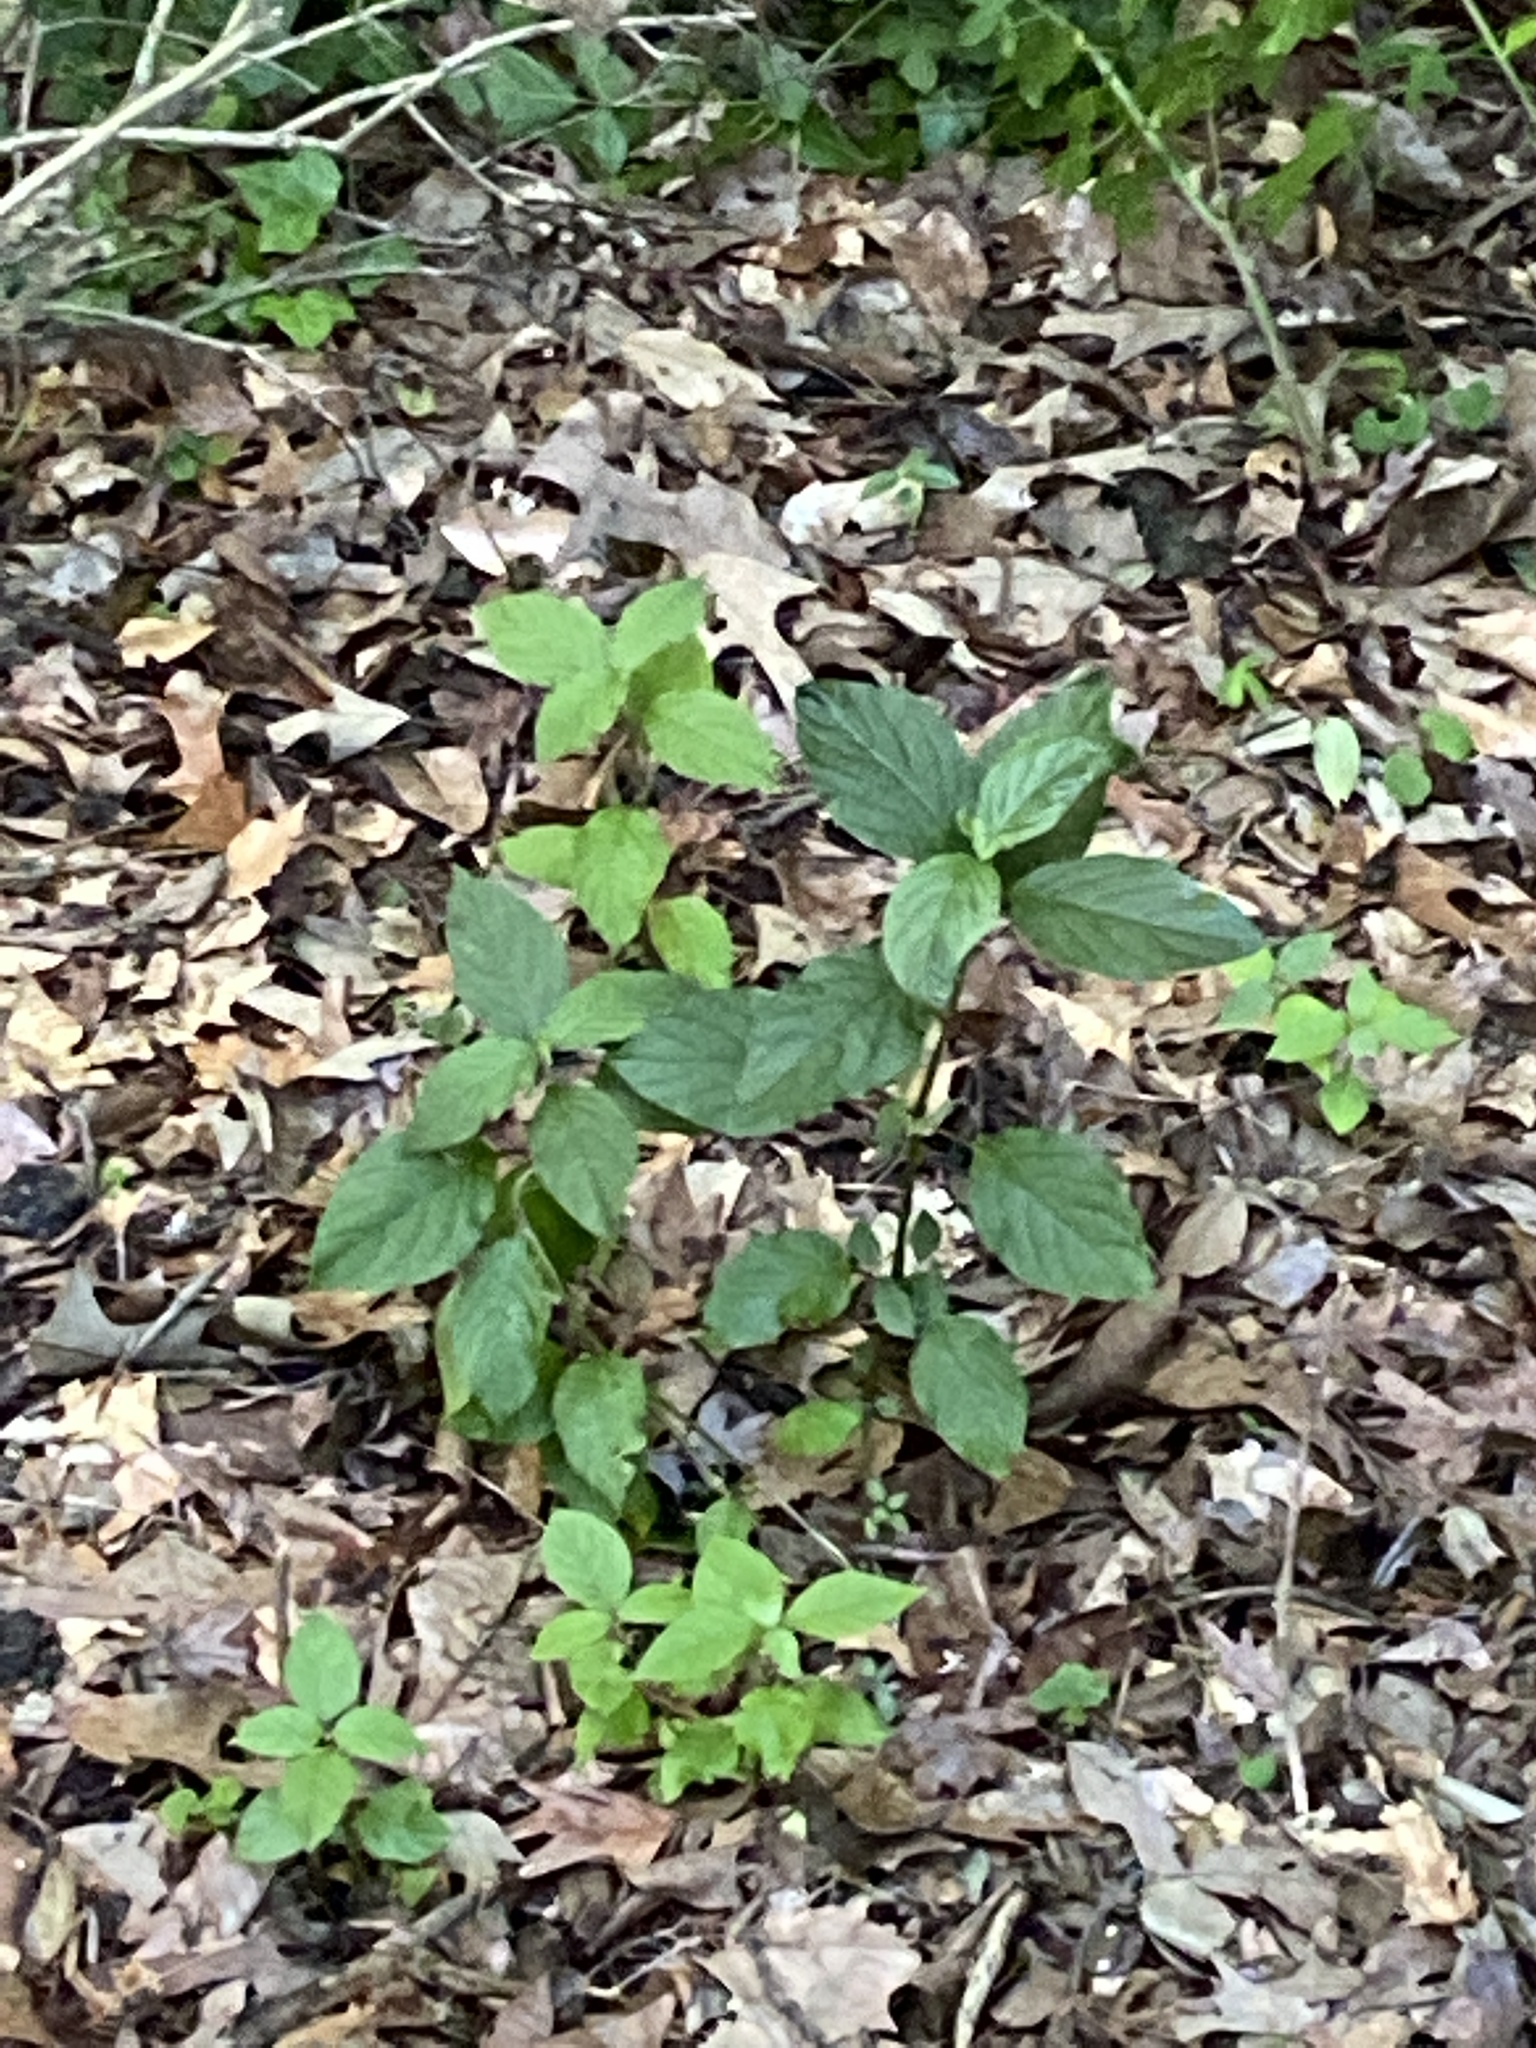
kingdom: Plantae
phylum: Tracheophyta
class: Magnoliopsida
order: Caryophyllales
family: Amaranthaceae
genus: Achyranthes
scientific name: Achyranthes bidentata
